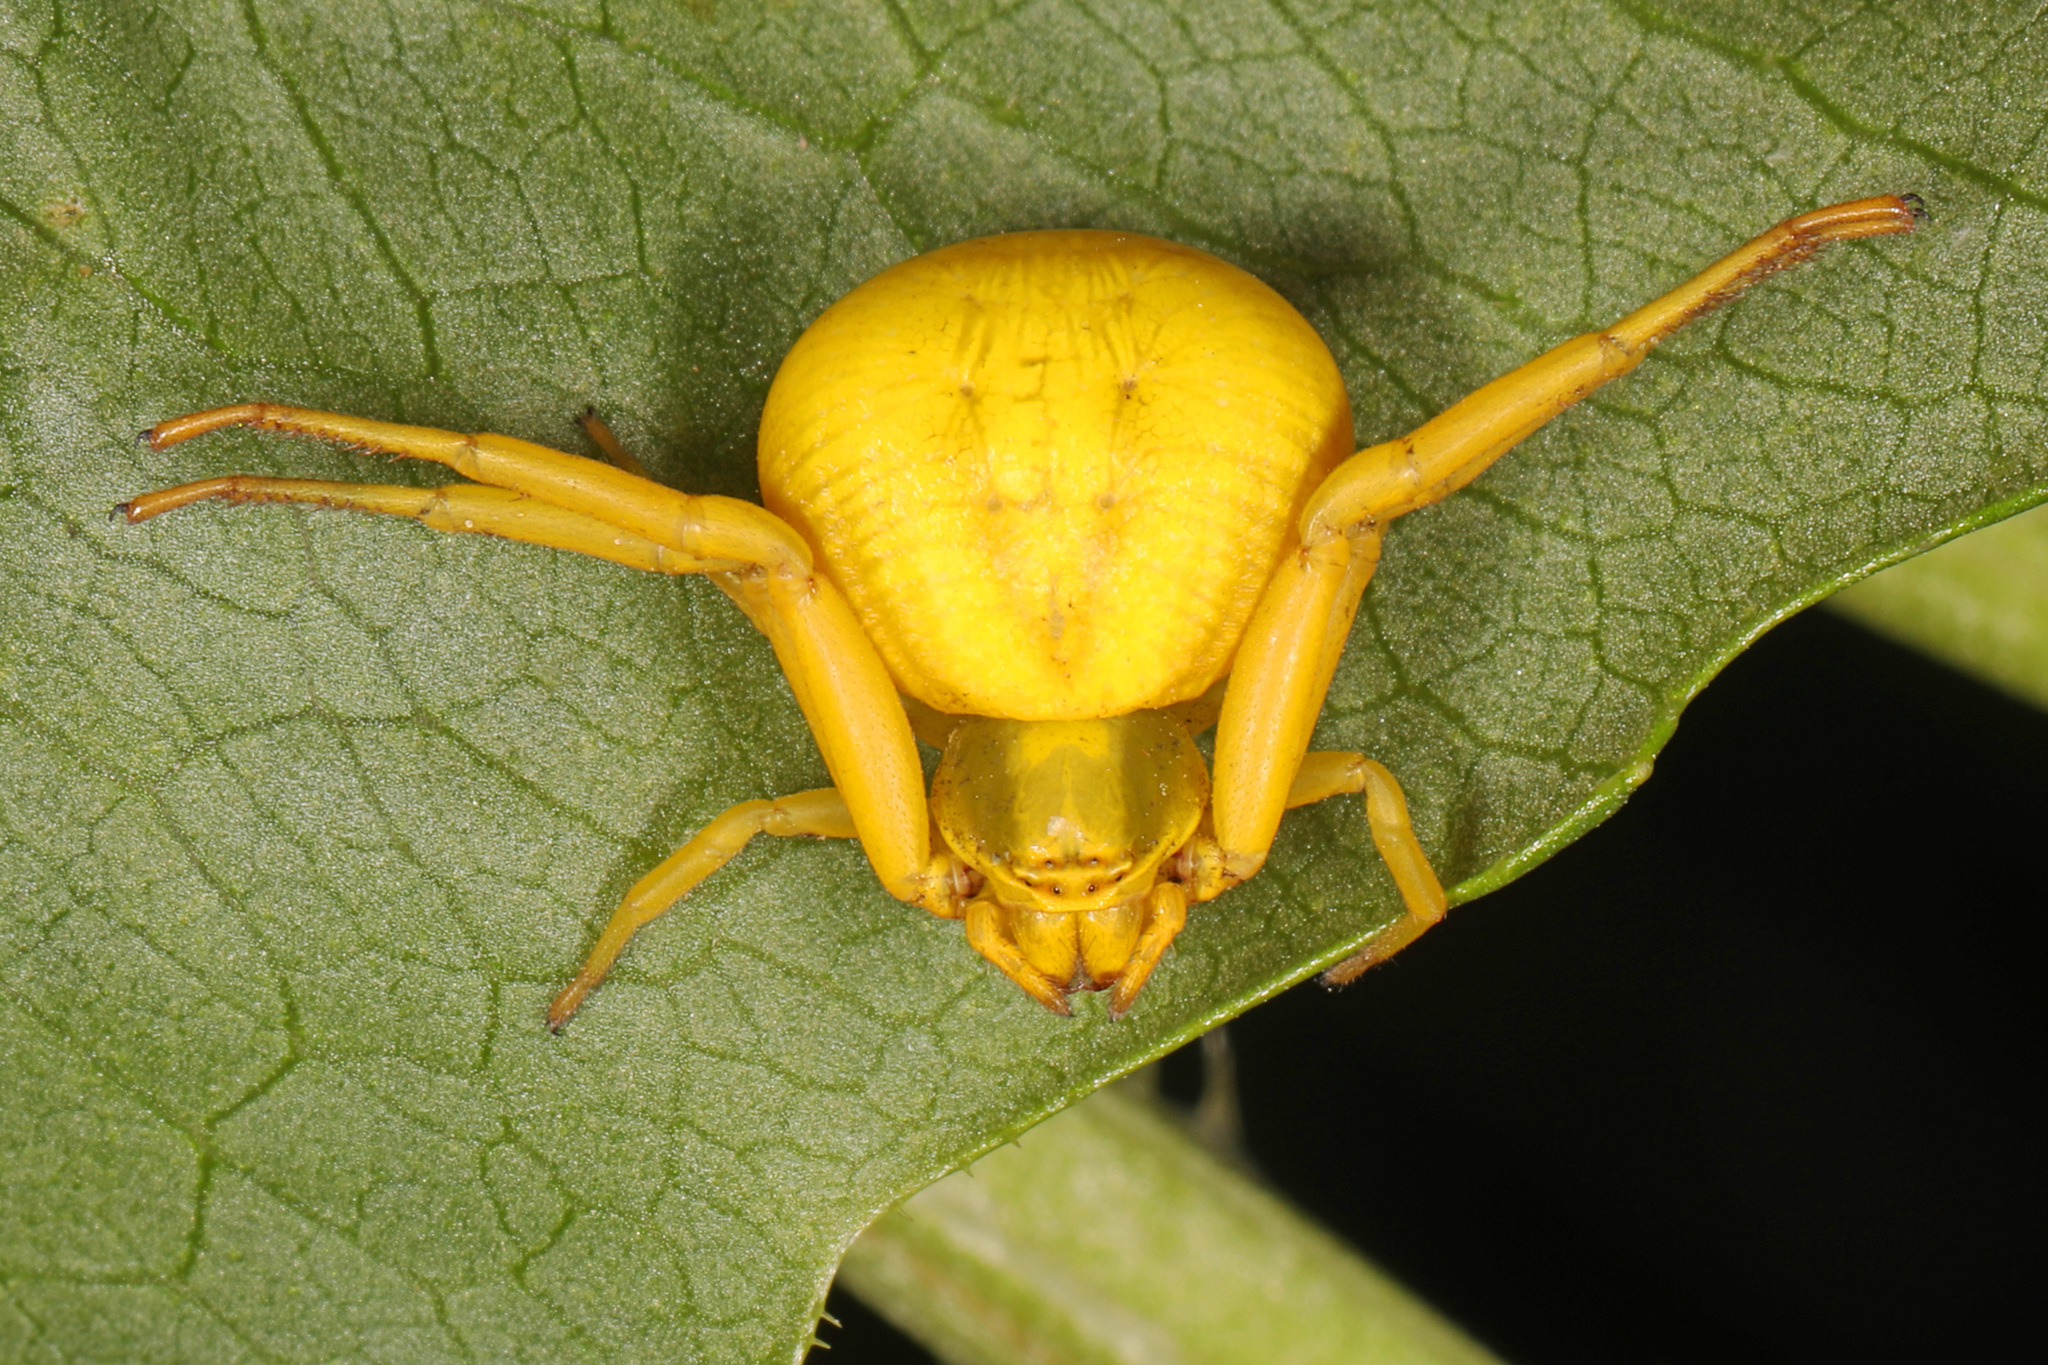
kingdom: Animalia
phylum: Arthropoda
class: Arachnida
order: Araneae
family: Thomisidae
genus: Misumenoides
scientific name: Misumenoides formosipes
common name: White-banded crab spider
